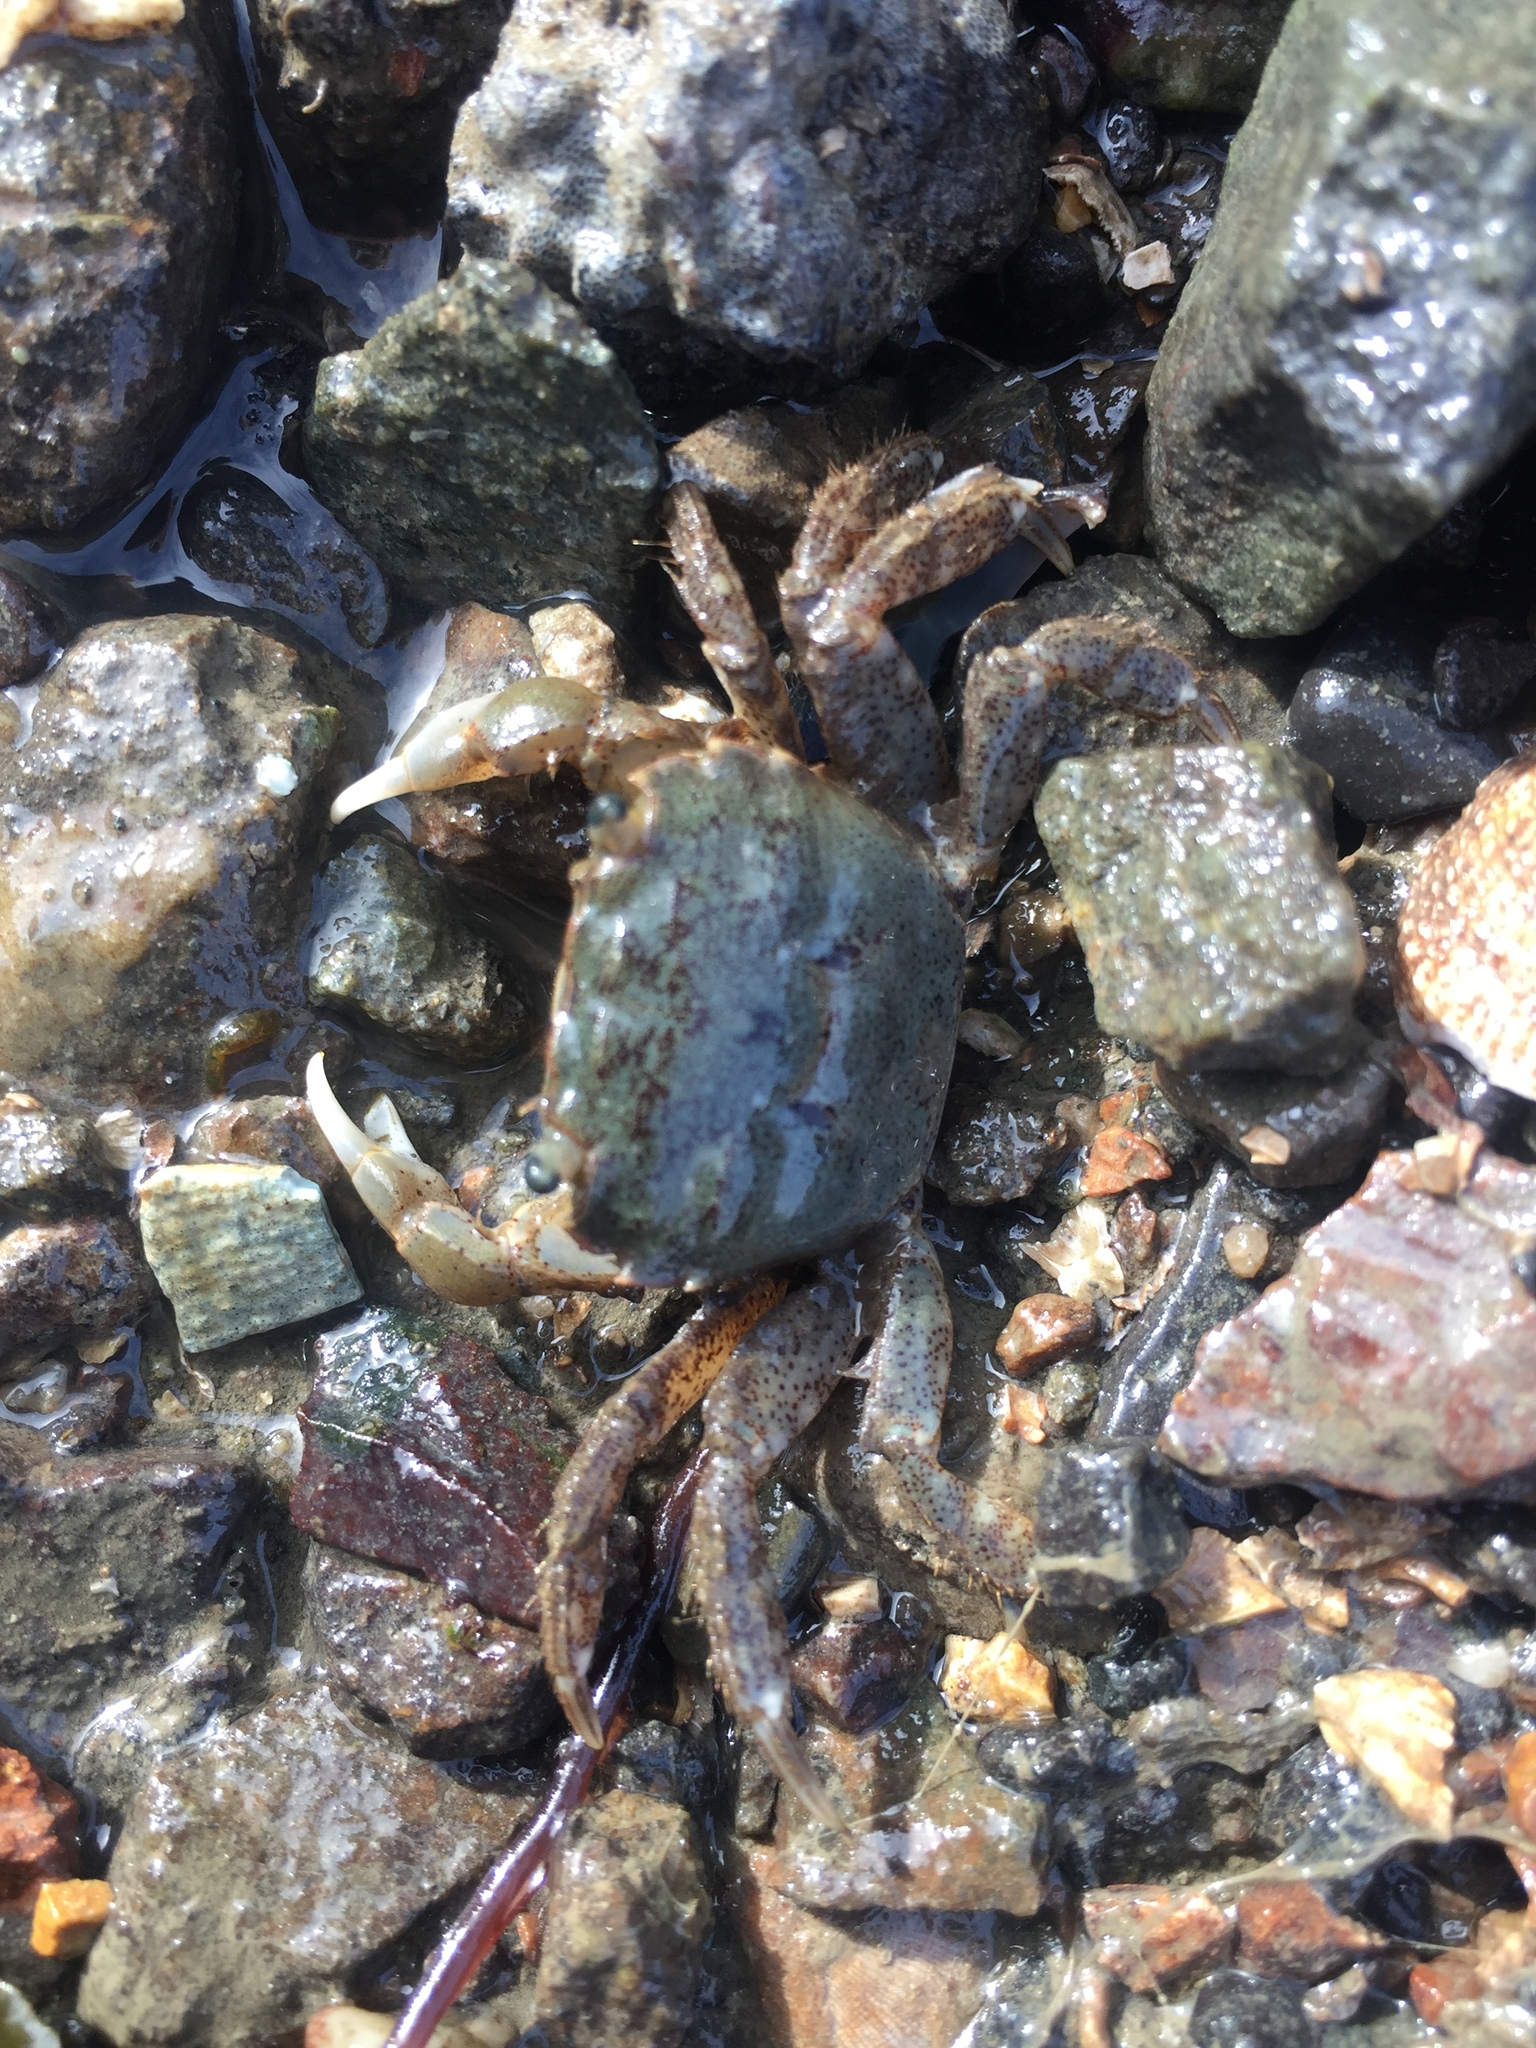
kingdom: Animalia
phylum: Arthropoda
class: Malacostraca
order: Decapoda
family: Varunidae
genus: Hemigrapsus
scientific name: Hemigrapsus oregonensis
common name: Yellow shore crab
